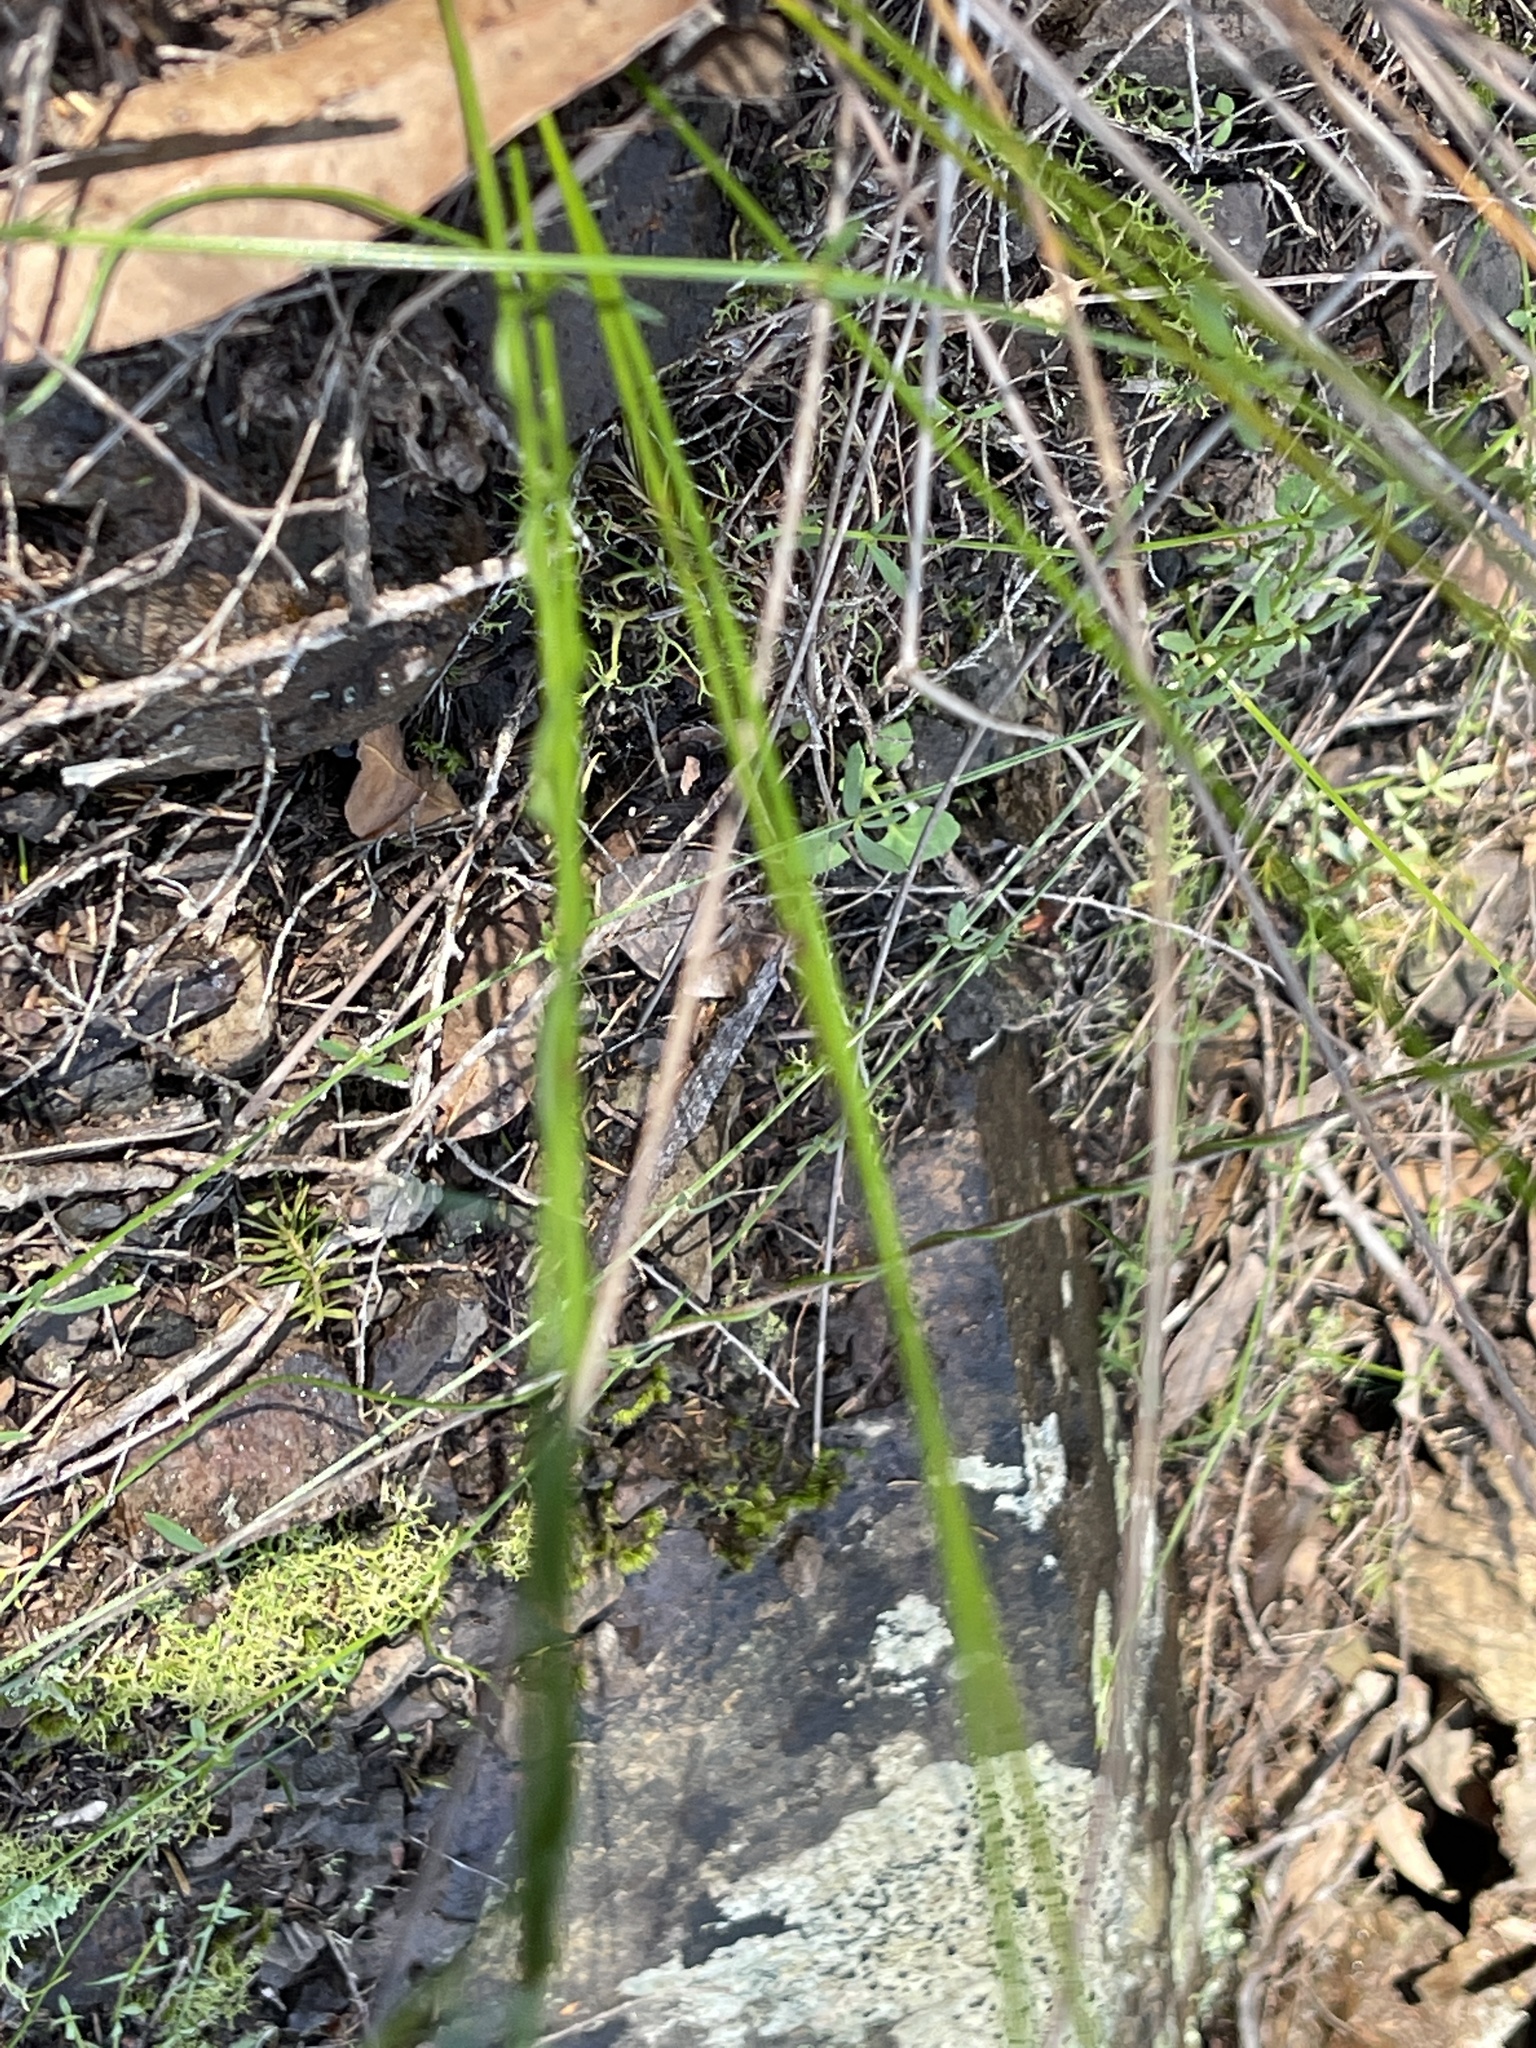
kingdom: Plantae
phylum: Tracheophyta
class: Magnoliopsida
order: Fabales
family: Polygalaceae
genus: Comesperma
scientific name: Comesperma volubile
